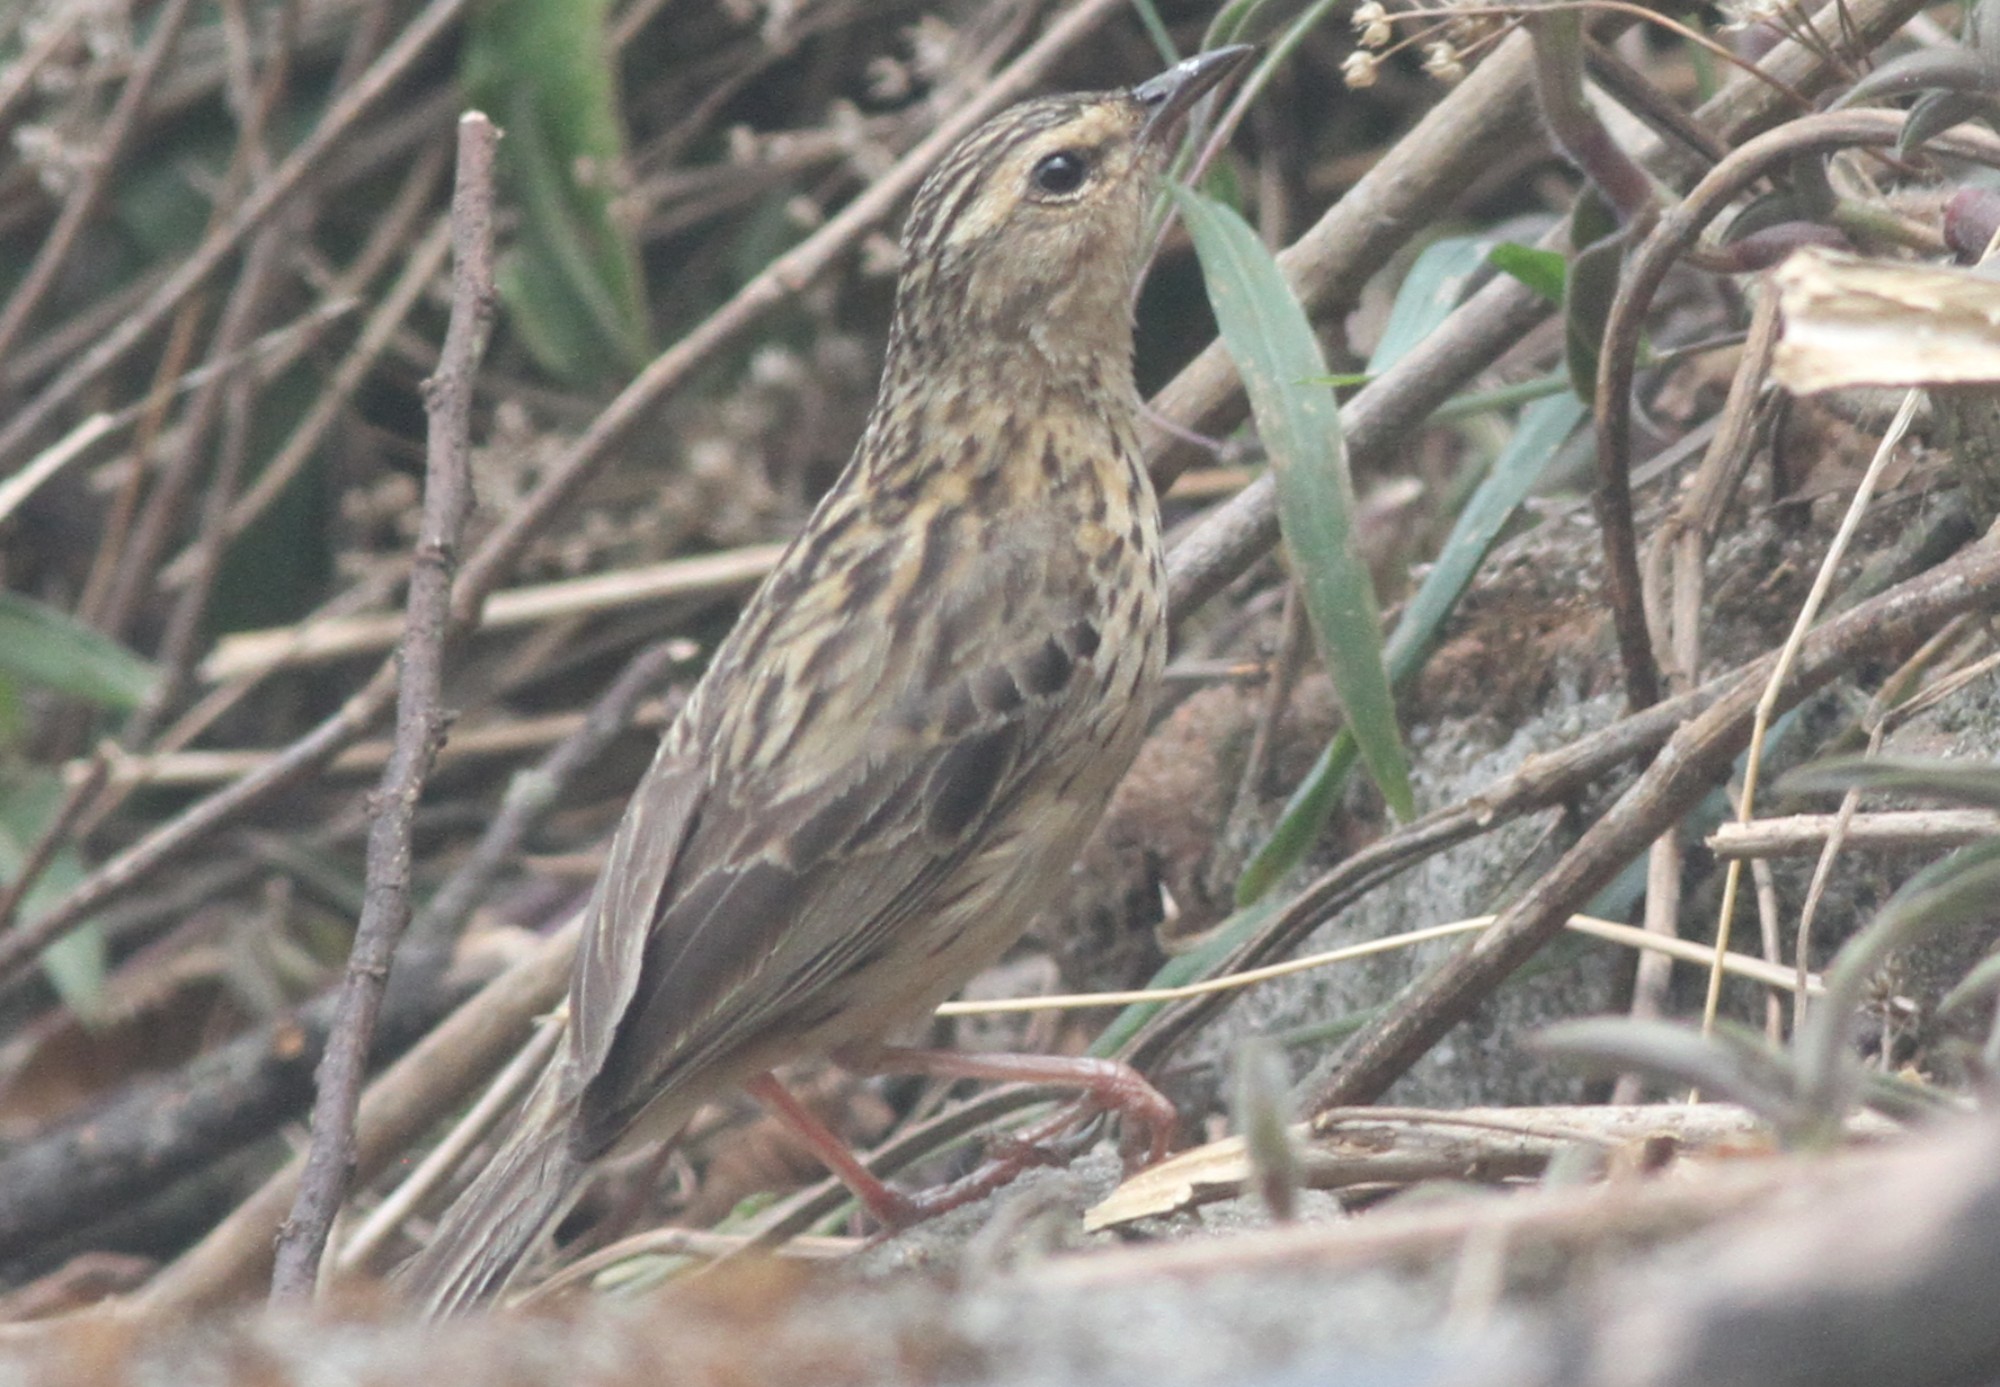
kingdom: Animalia
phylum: Chordata
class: Aves
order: Passeriformes
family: Motacillidae
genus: Anthus
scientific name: Anthus nilghiriensis
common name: Nilgiri pipit
